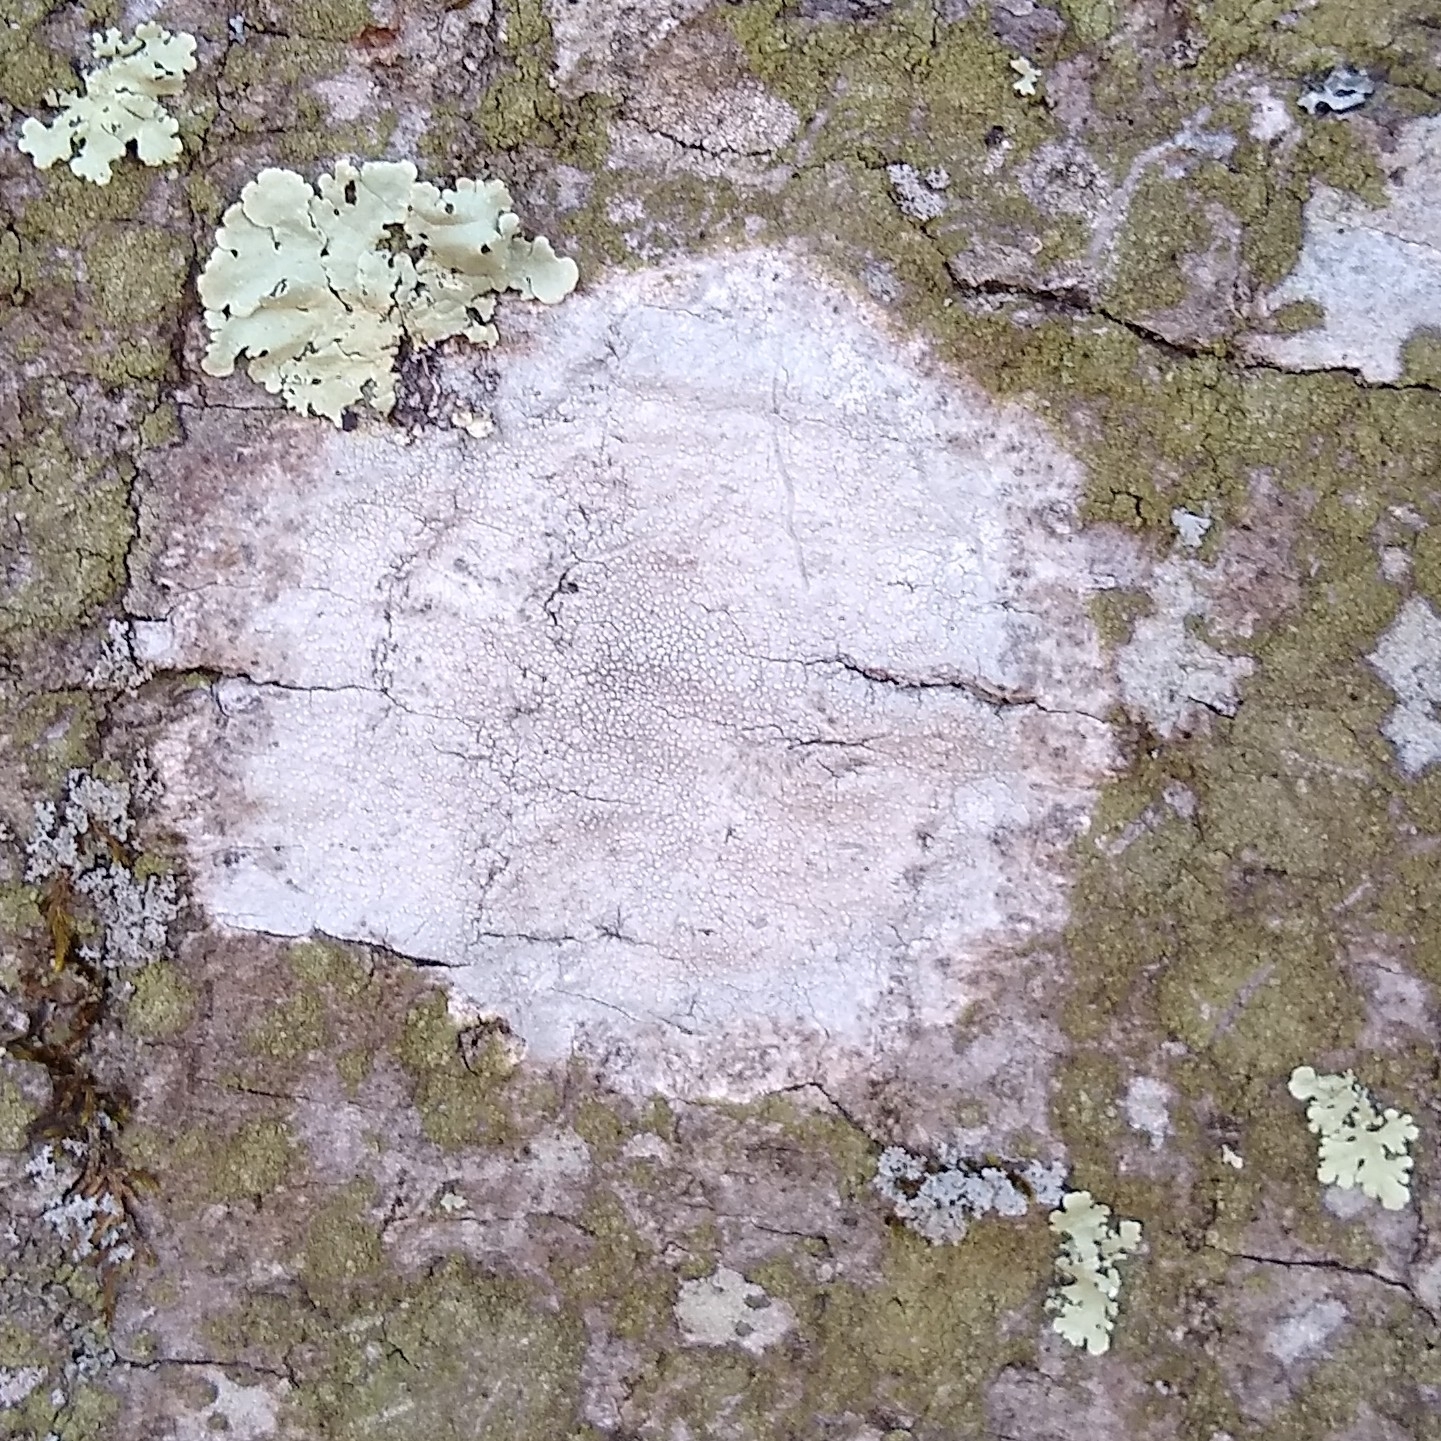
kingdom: Fungi
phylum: Ascomycota
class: Lecanoromycetes
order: Ostropales
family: Phlyctidaceae
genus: Phlyctis
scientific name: Phlyctis argena
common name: Whitewash lichen
